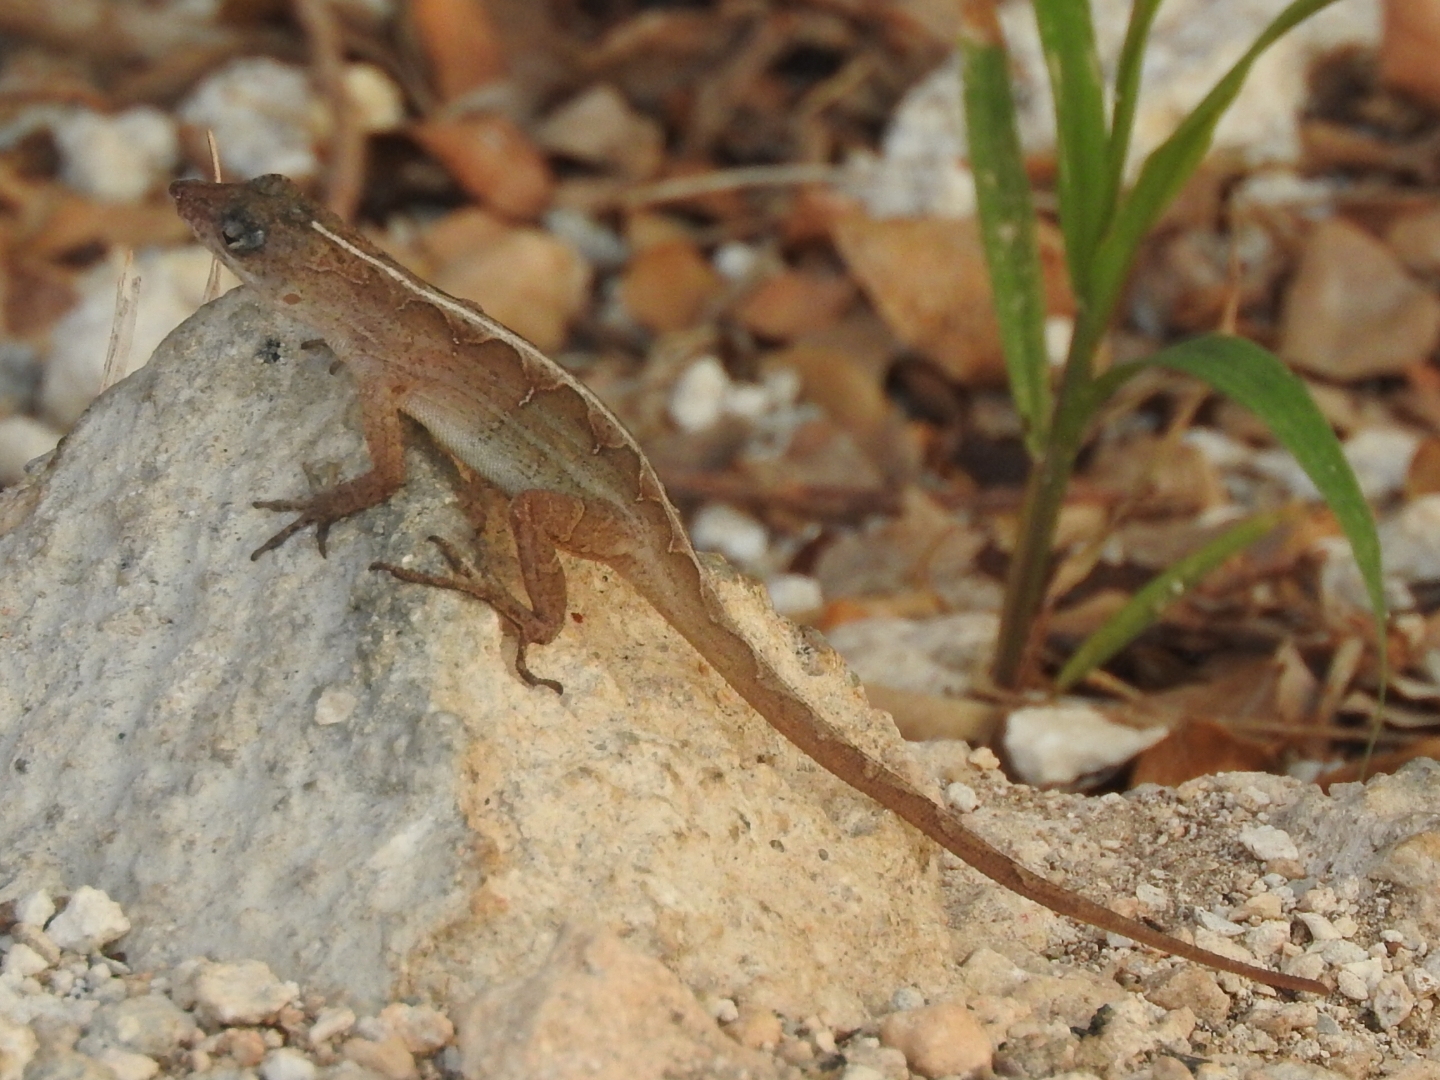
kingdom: Animalia
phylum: Chordata
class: Squamata
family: Dactyloidae
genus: Anolis
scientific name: Anolis sagrei
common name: Brown anole
